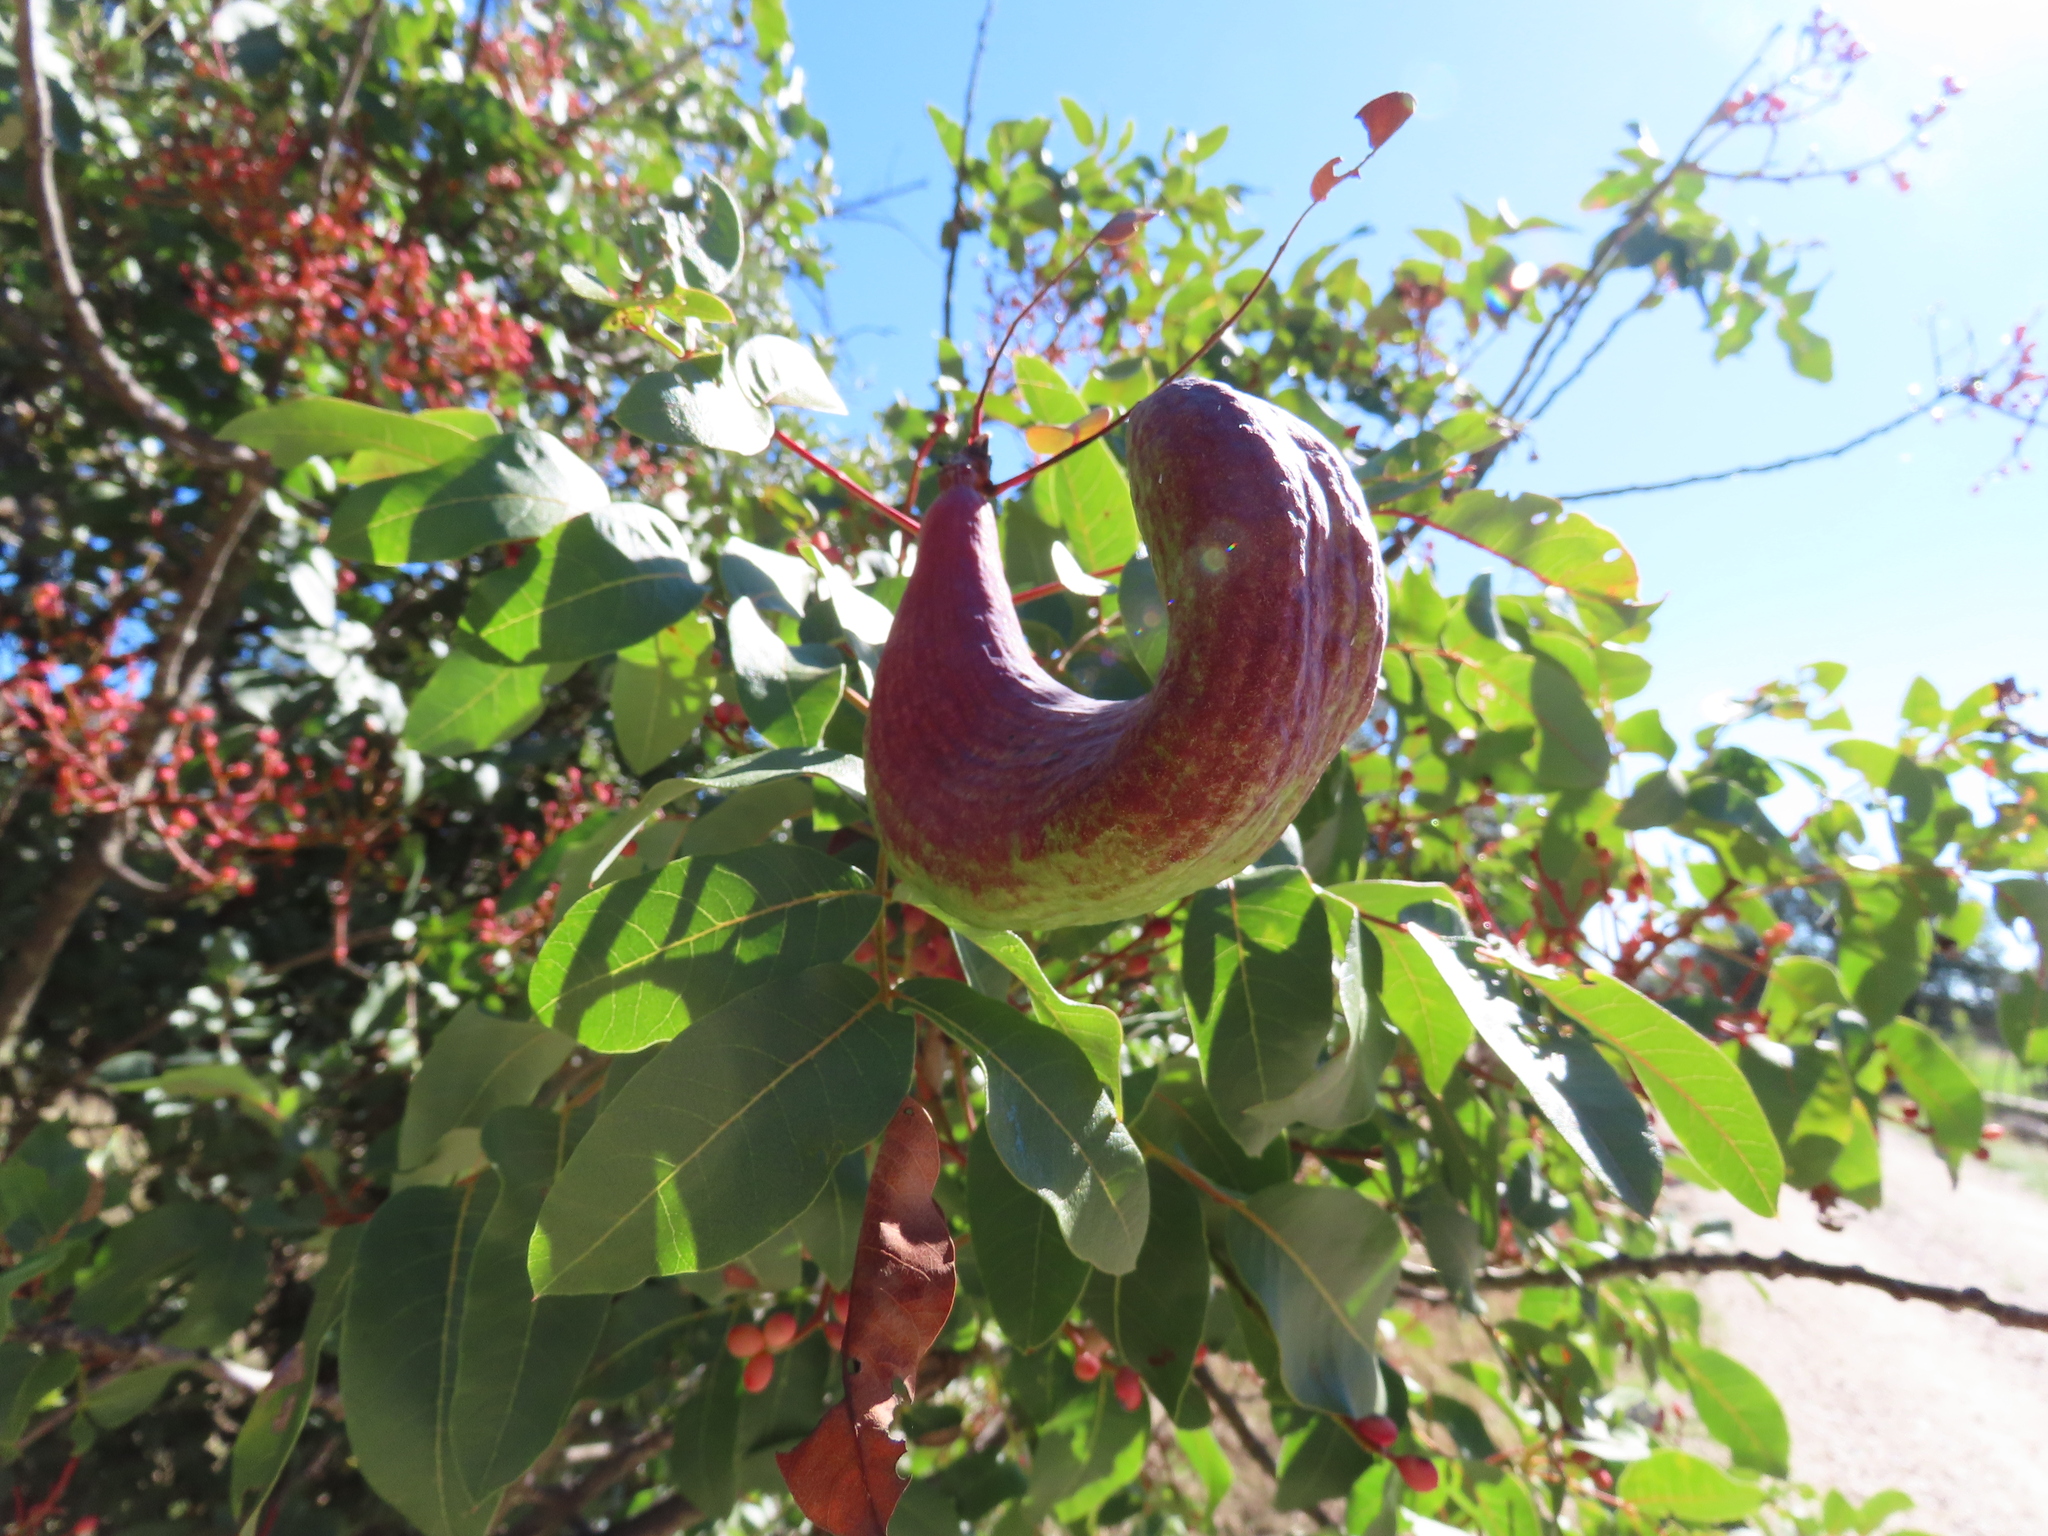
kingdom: Animalia
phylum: Arthropoda
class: Insecta
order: Hemiptera
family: Aphididae
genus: Baizongia
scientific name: Baizongia pistaciae
